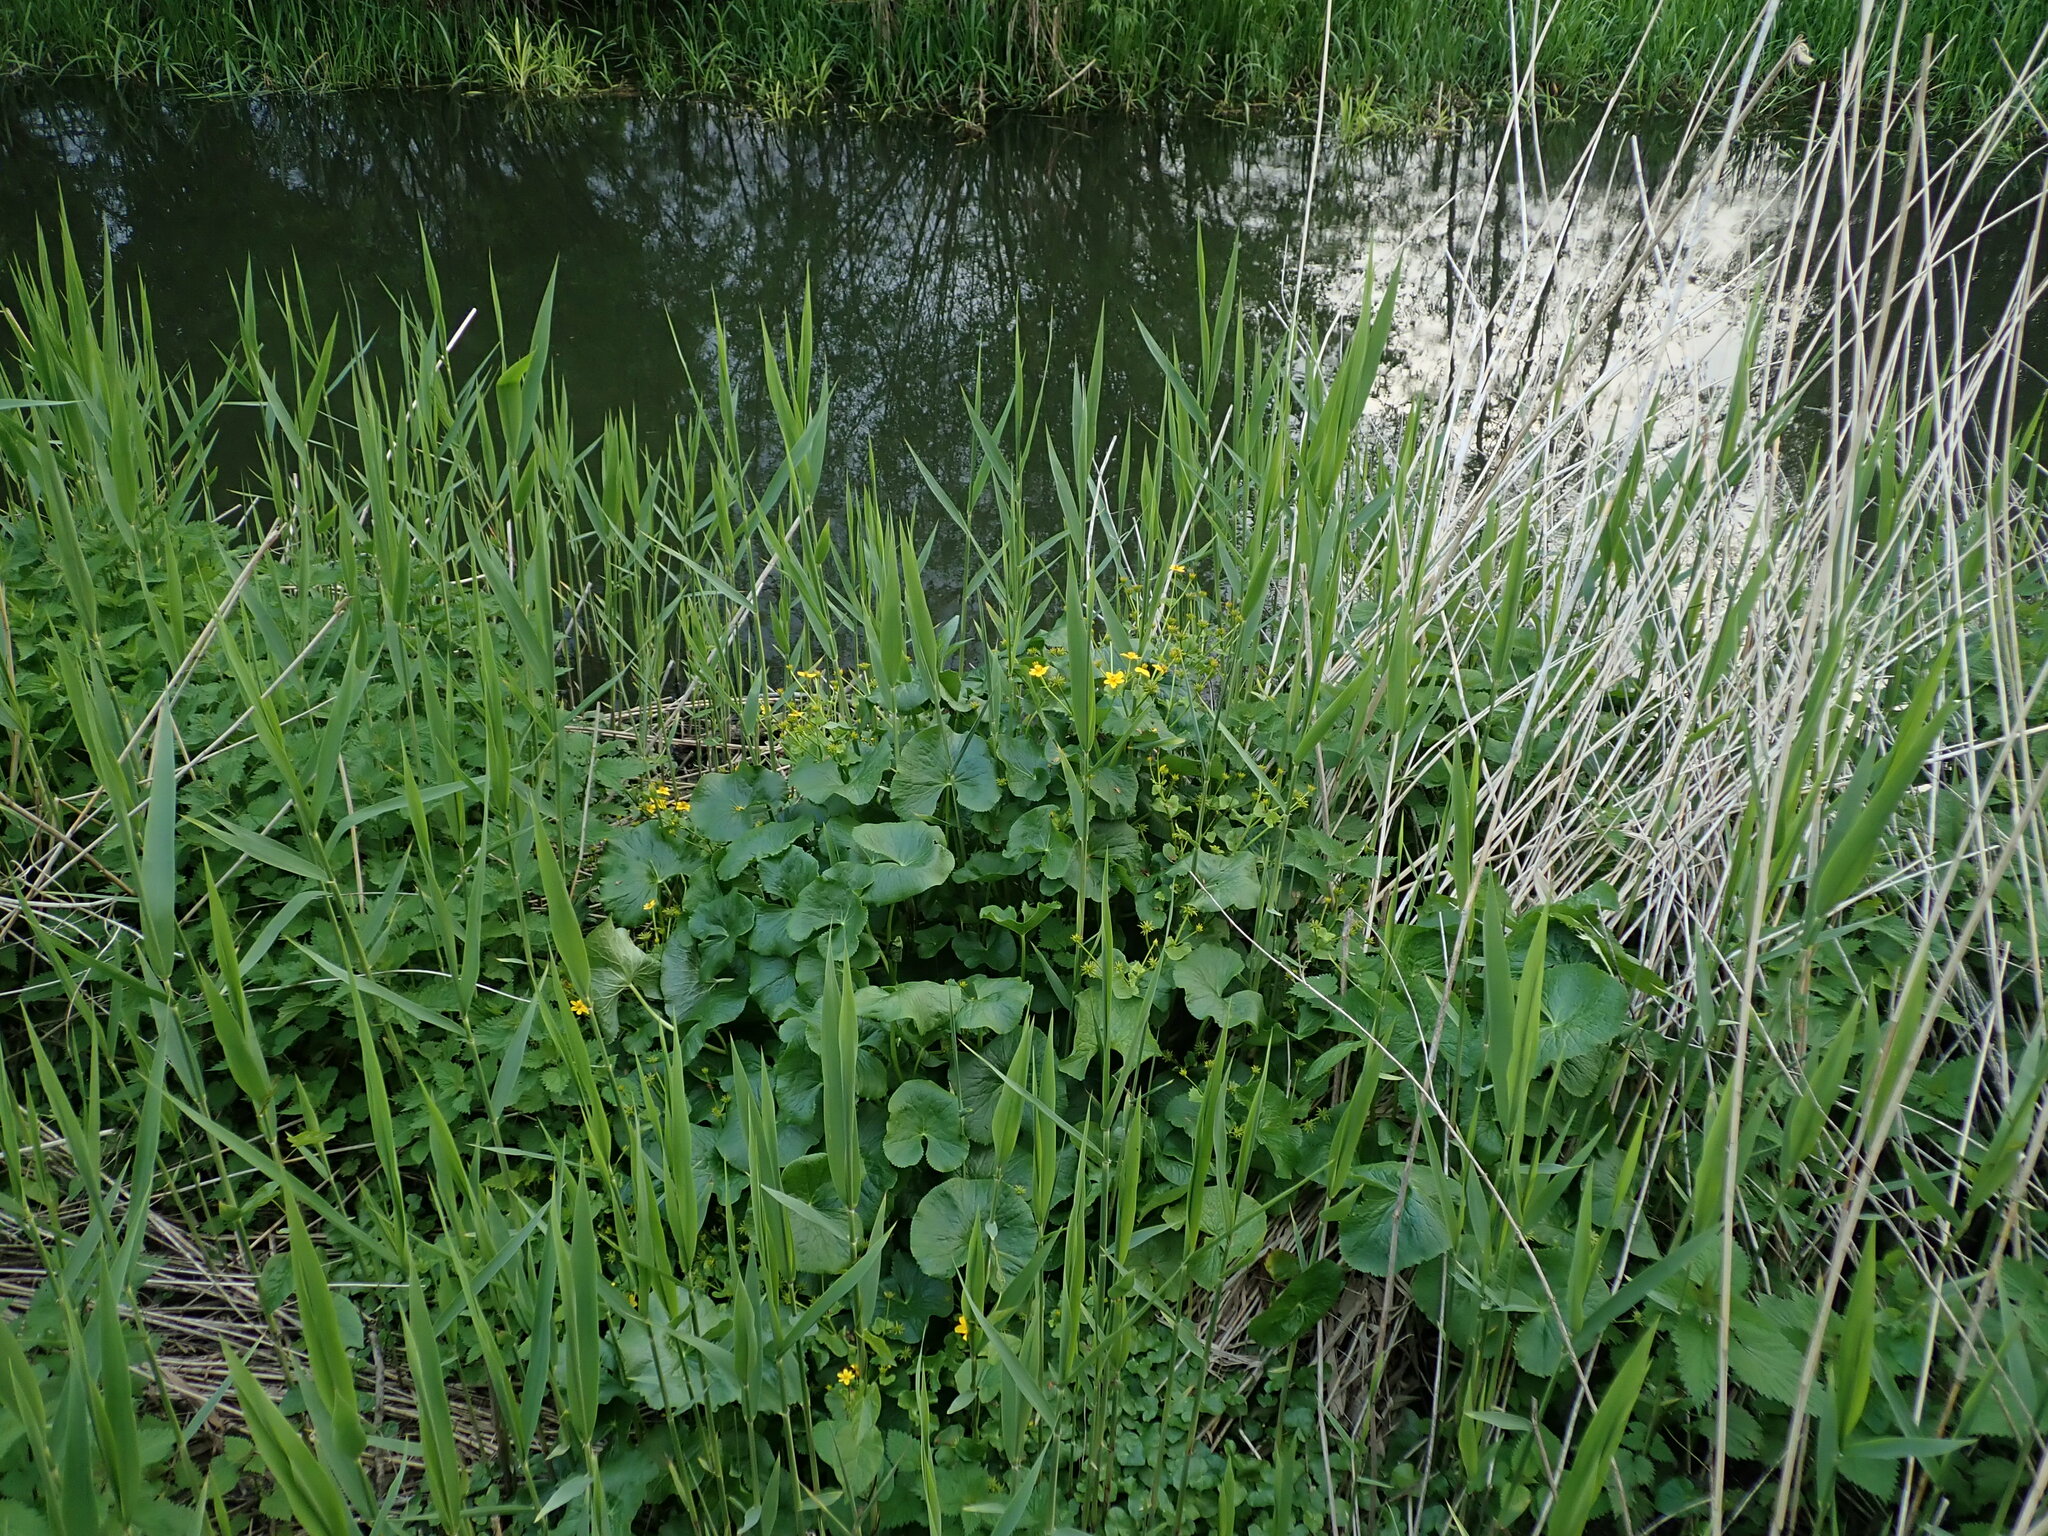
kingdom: Plantae
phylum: Tracheophyta
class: Magnoliopsida
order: Ranunculales
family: Ranunculaceae
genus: Caltha
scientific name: Caltha palustris
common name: Marsh marigold
